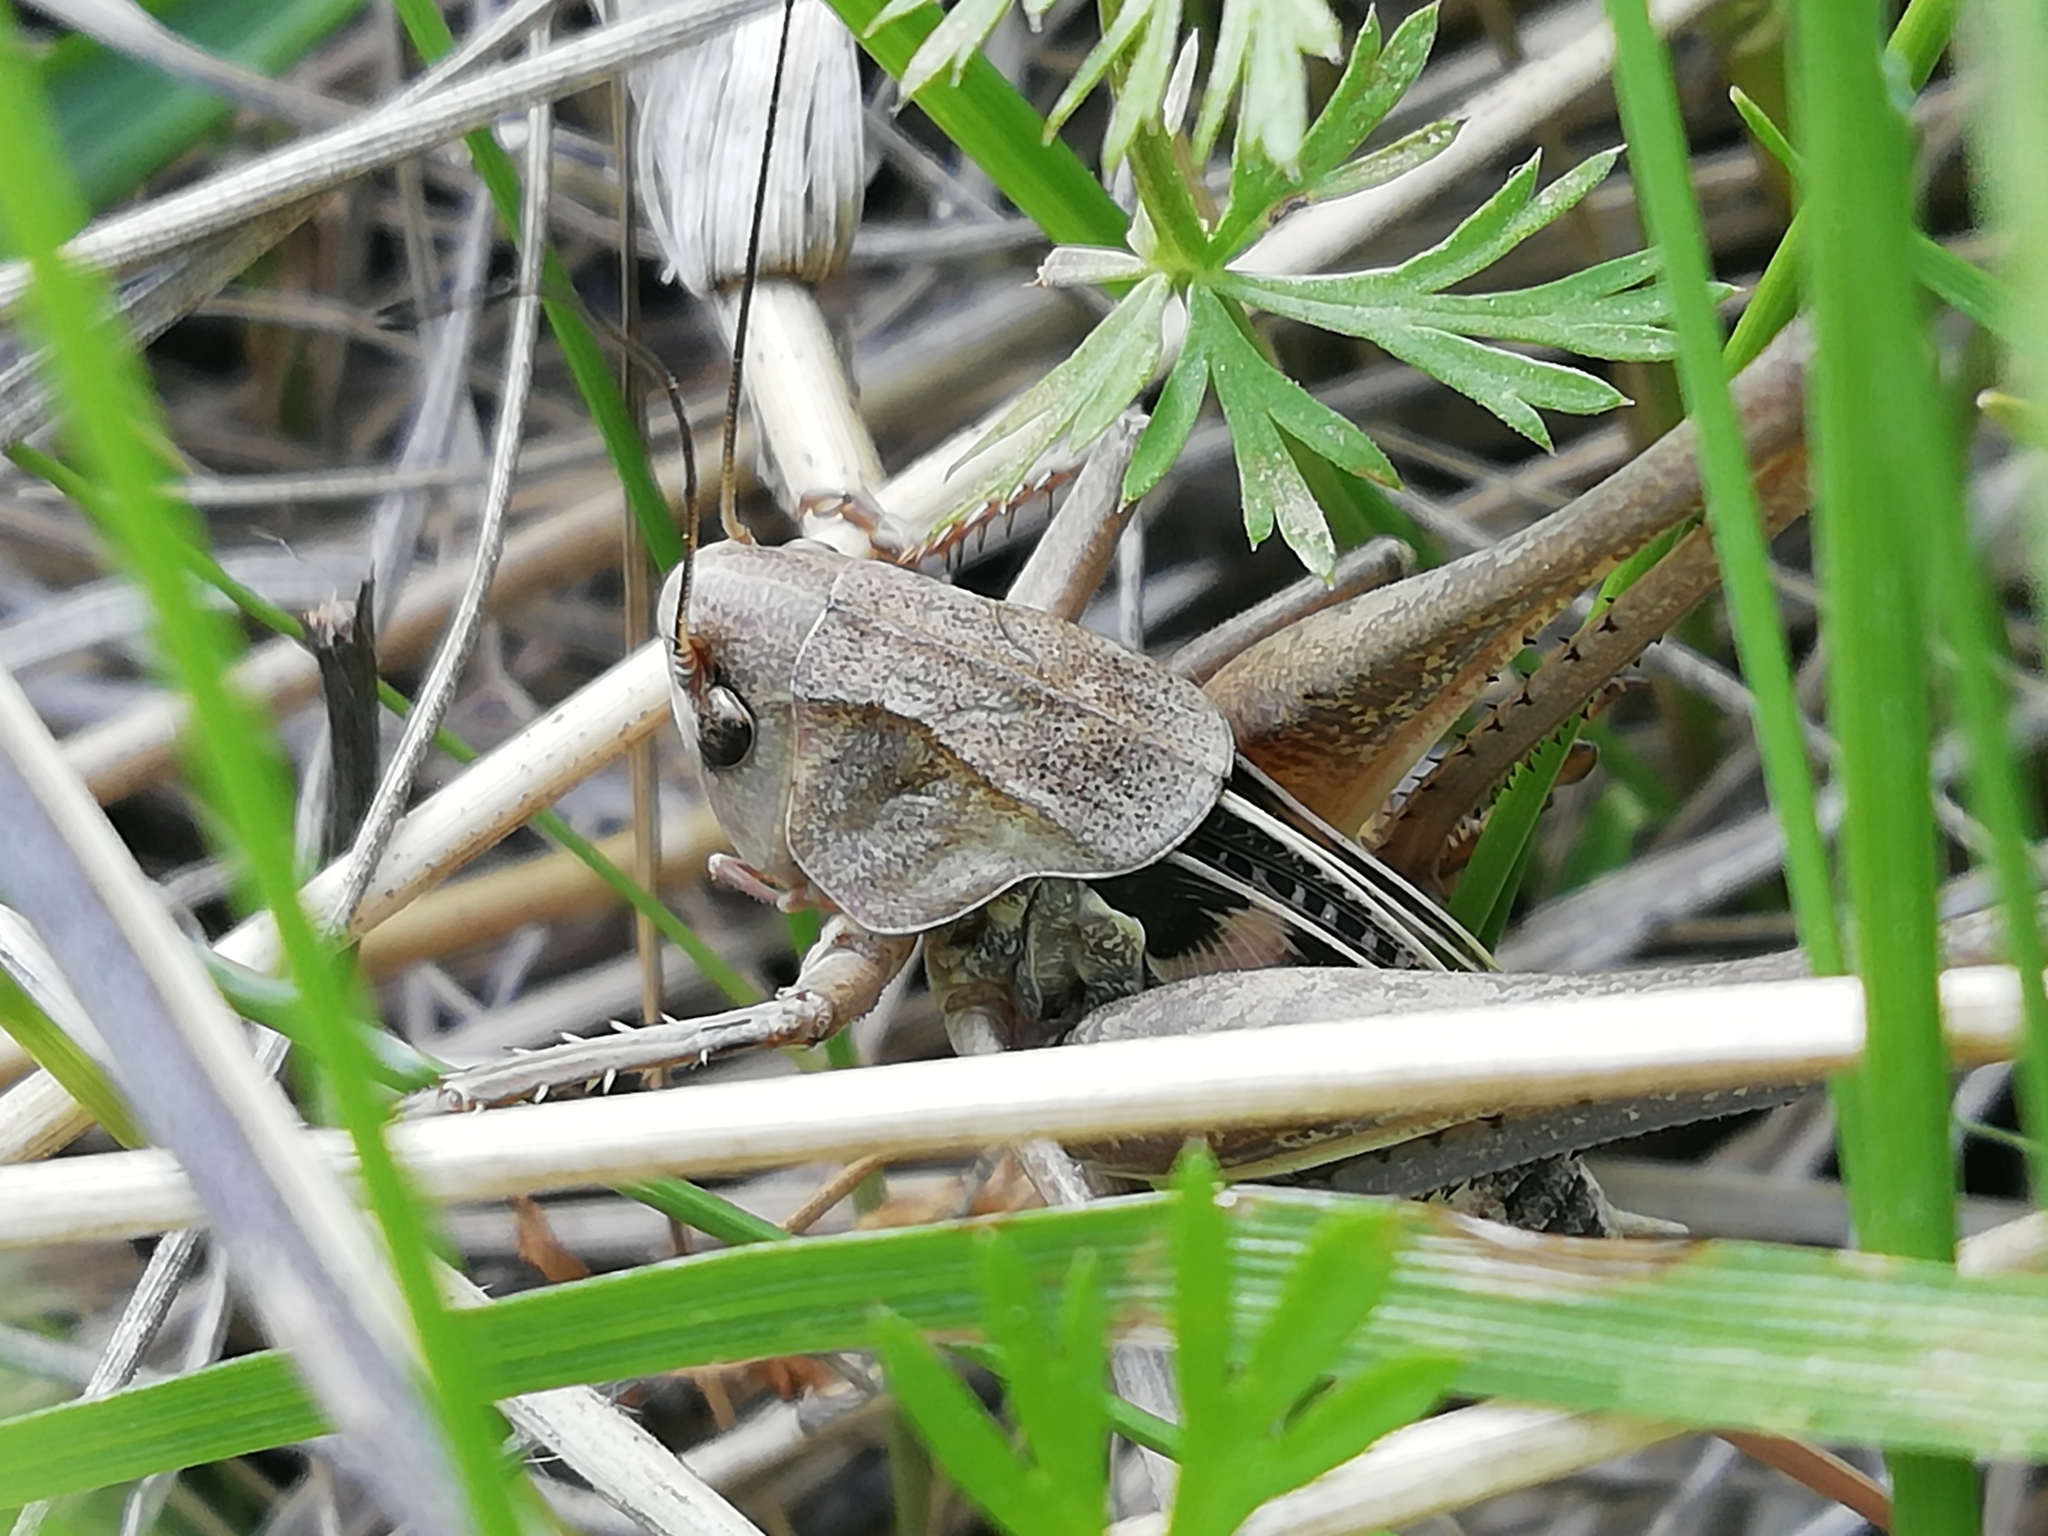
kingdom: Animalia
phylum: Arthropoda
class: Insecta
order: Orthoptera
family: Tettigoniidae
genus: Decticus
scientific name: Decticus verrucivorus
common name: Wart-biter
